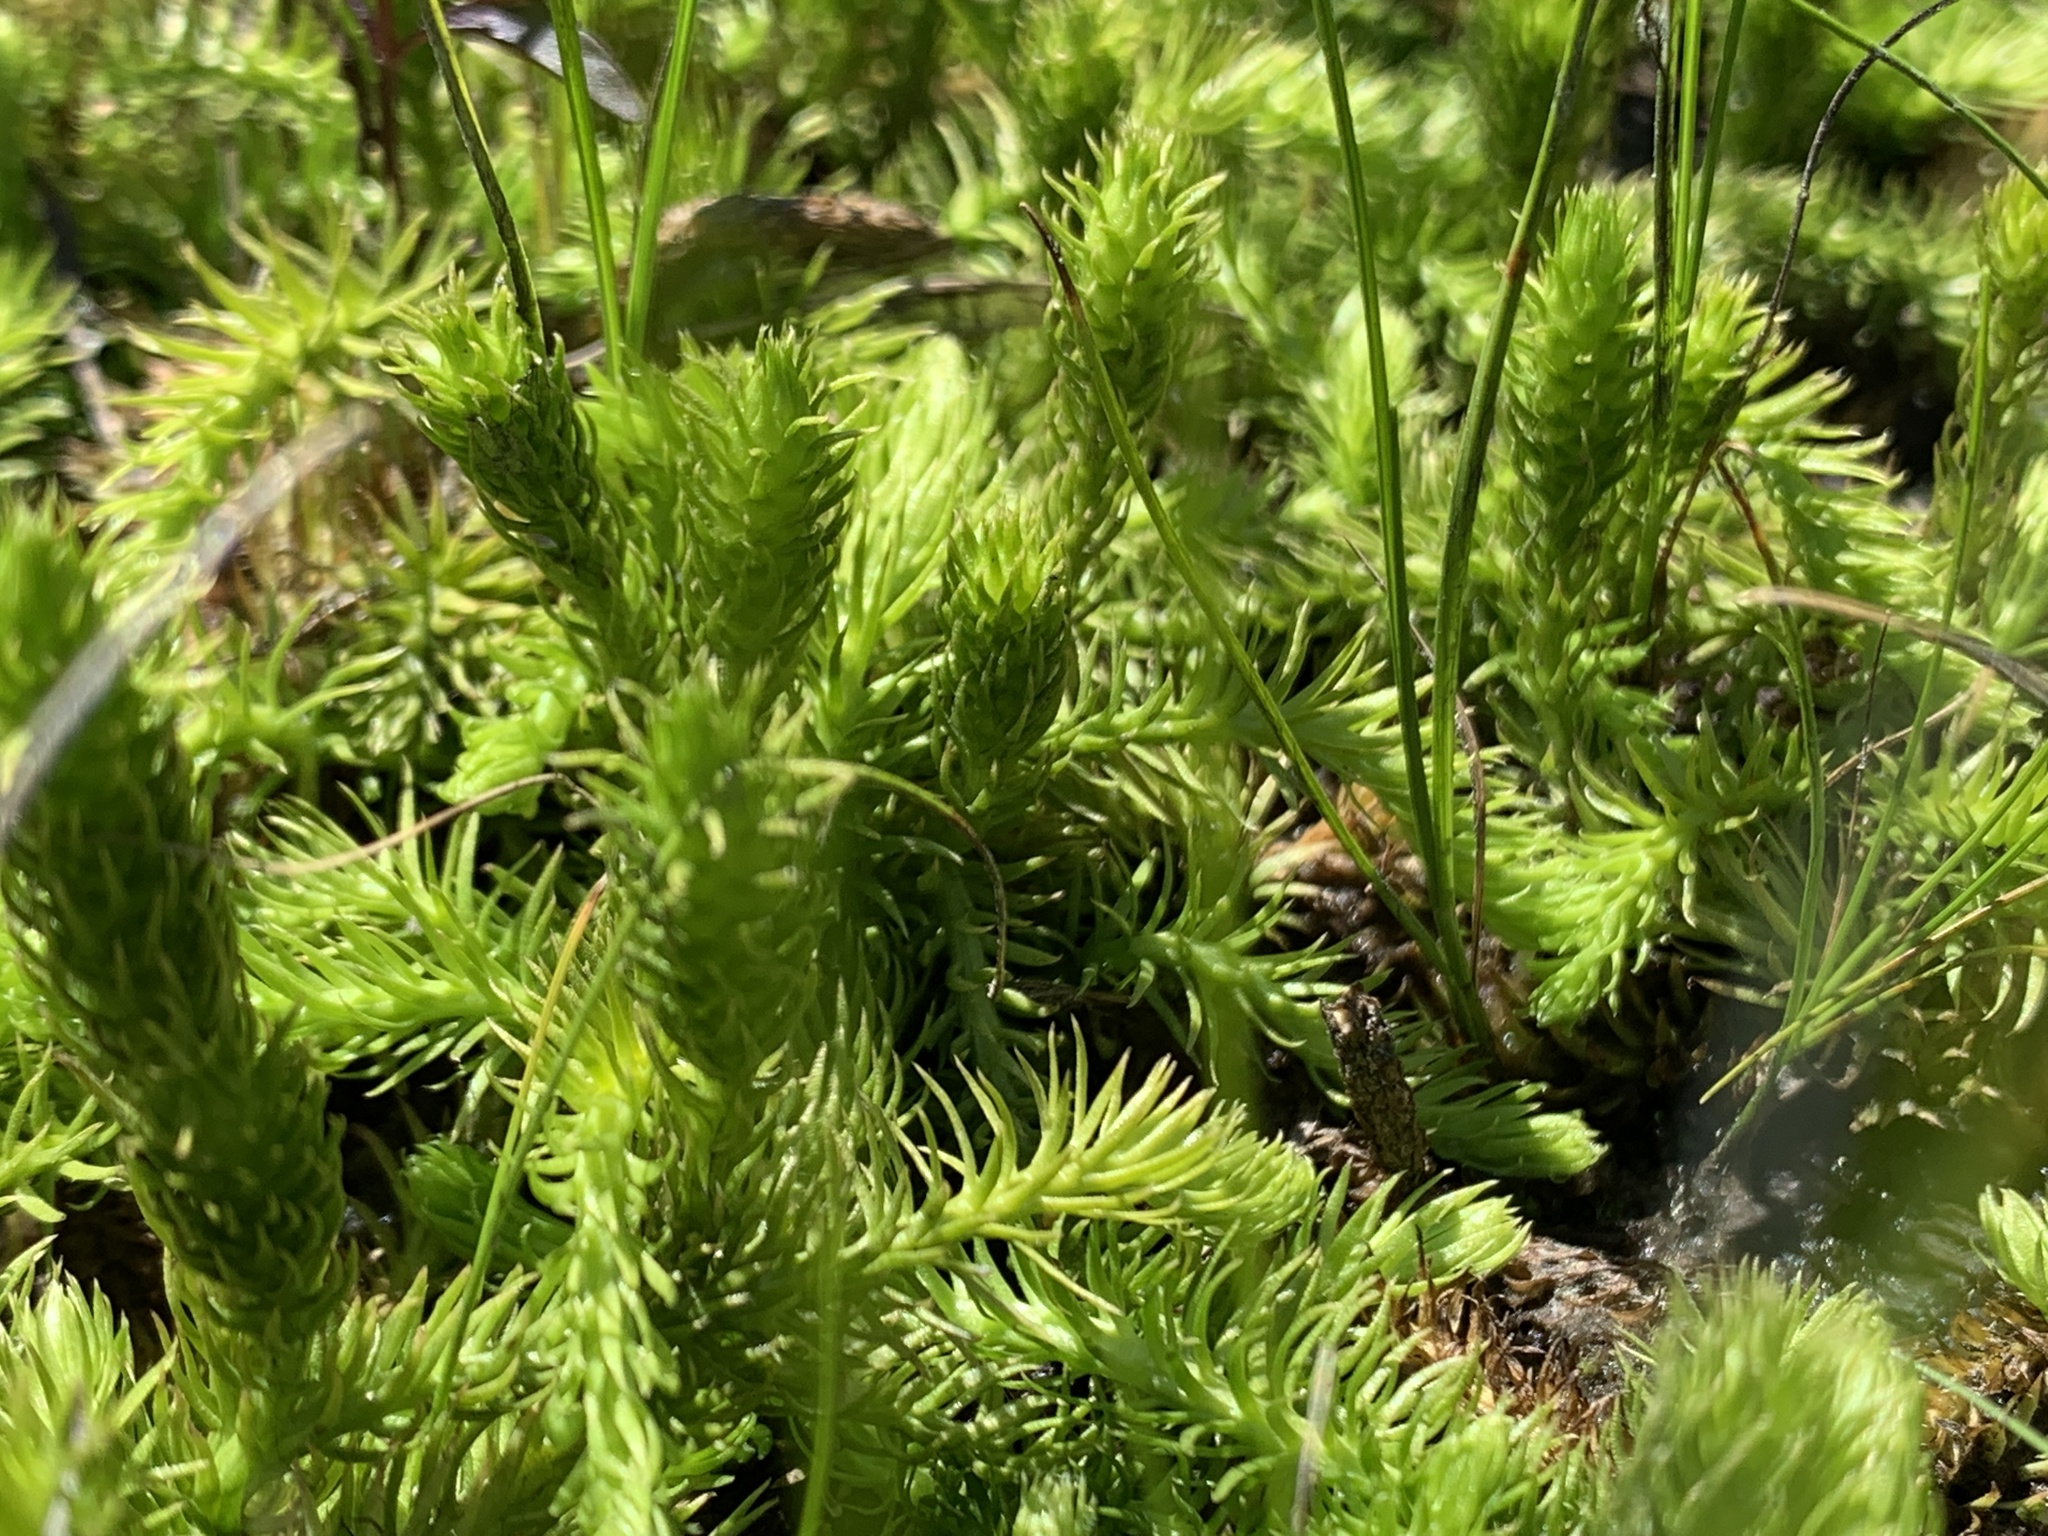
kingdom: Plantae
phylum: Tracheophyta
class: Lycopodiopsida
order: Lycopodiales
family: Lycopodiaceae
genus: Lycopodiella
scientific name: Lycopodiella inundata
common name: Marsh clubmoss
